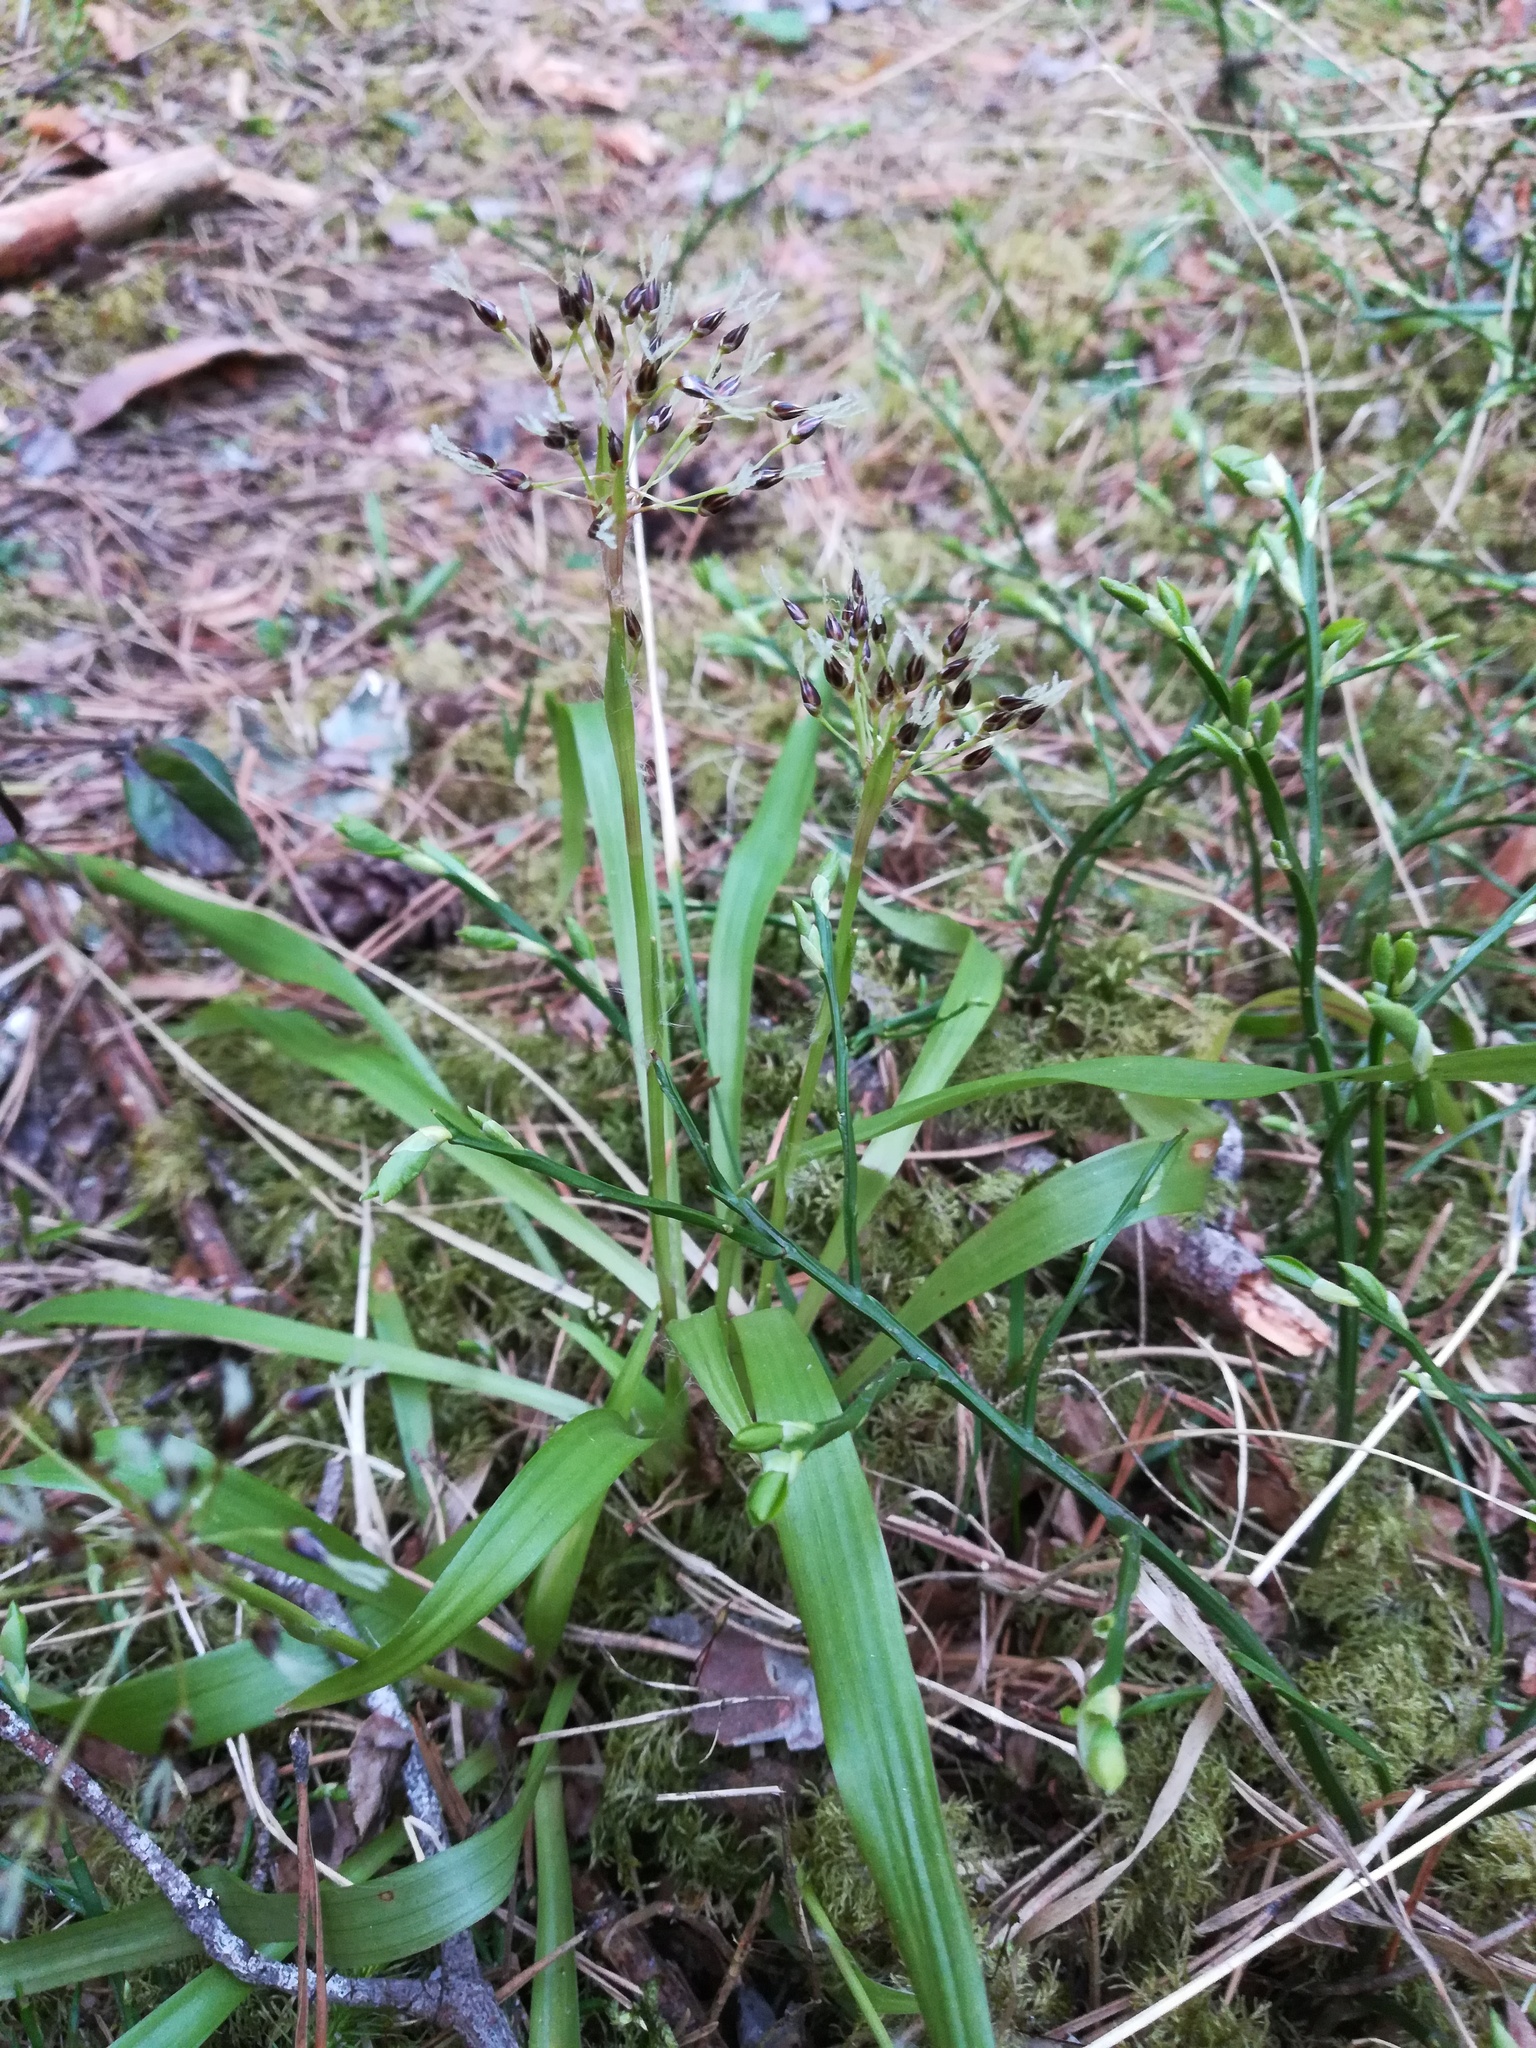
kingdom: Plantae
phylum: Tracheophyta
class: Liliopsida
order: Poales
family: Juncaceae
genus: Luzula
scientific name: Luzula pilosa
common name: Hairy wood-rush
